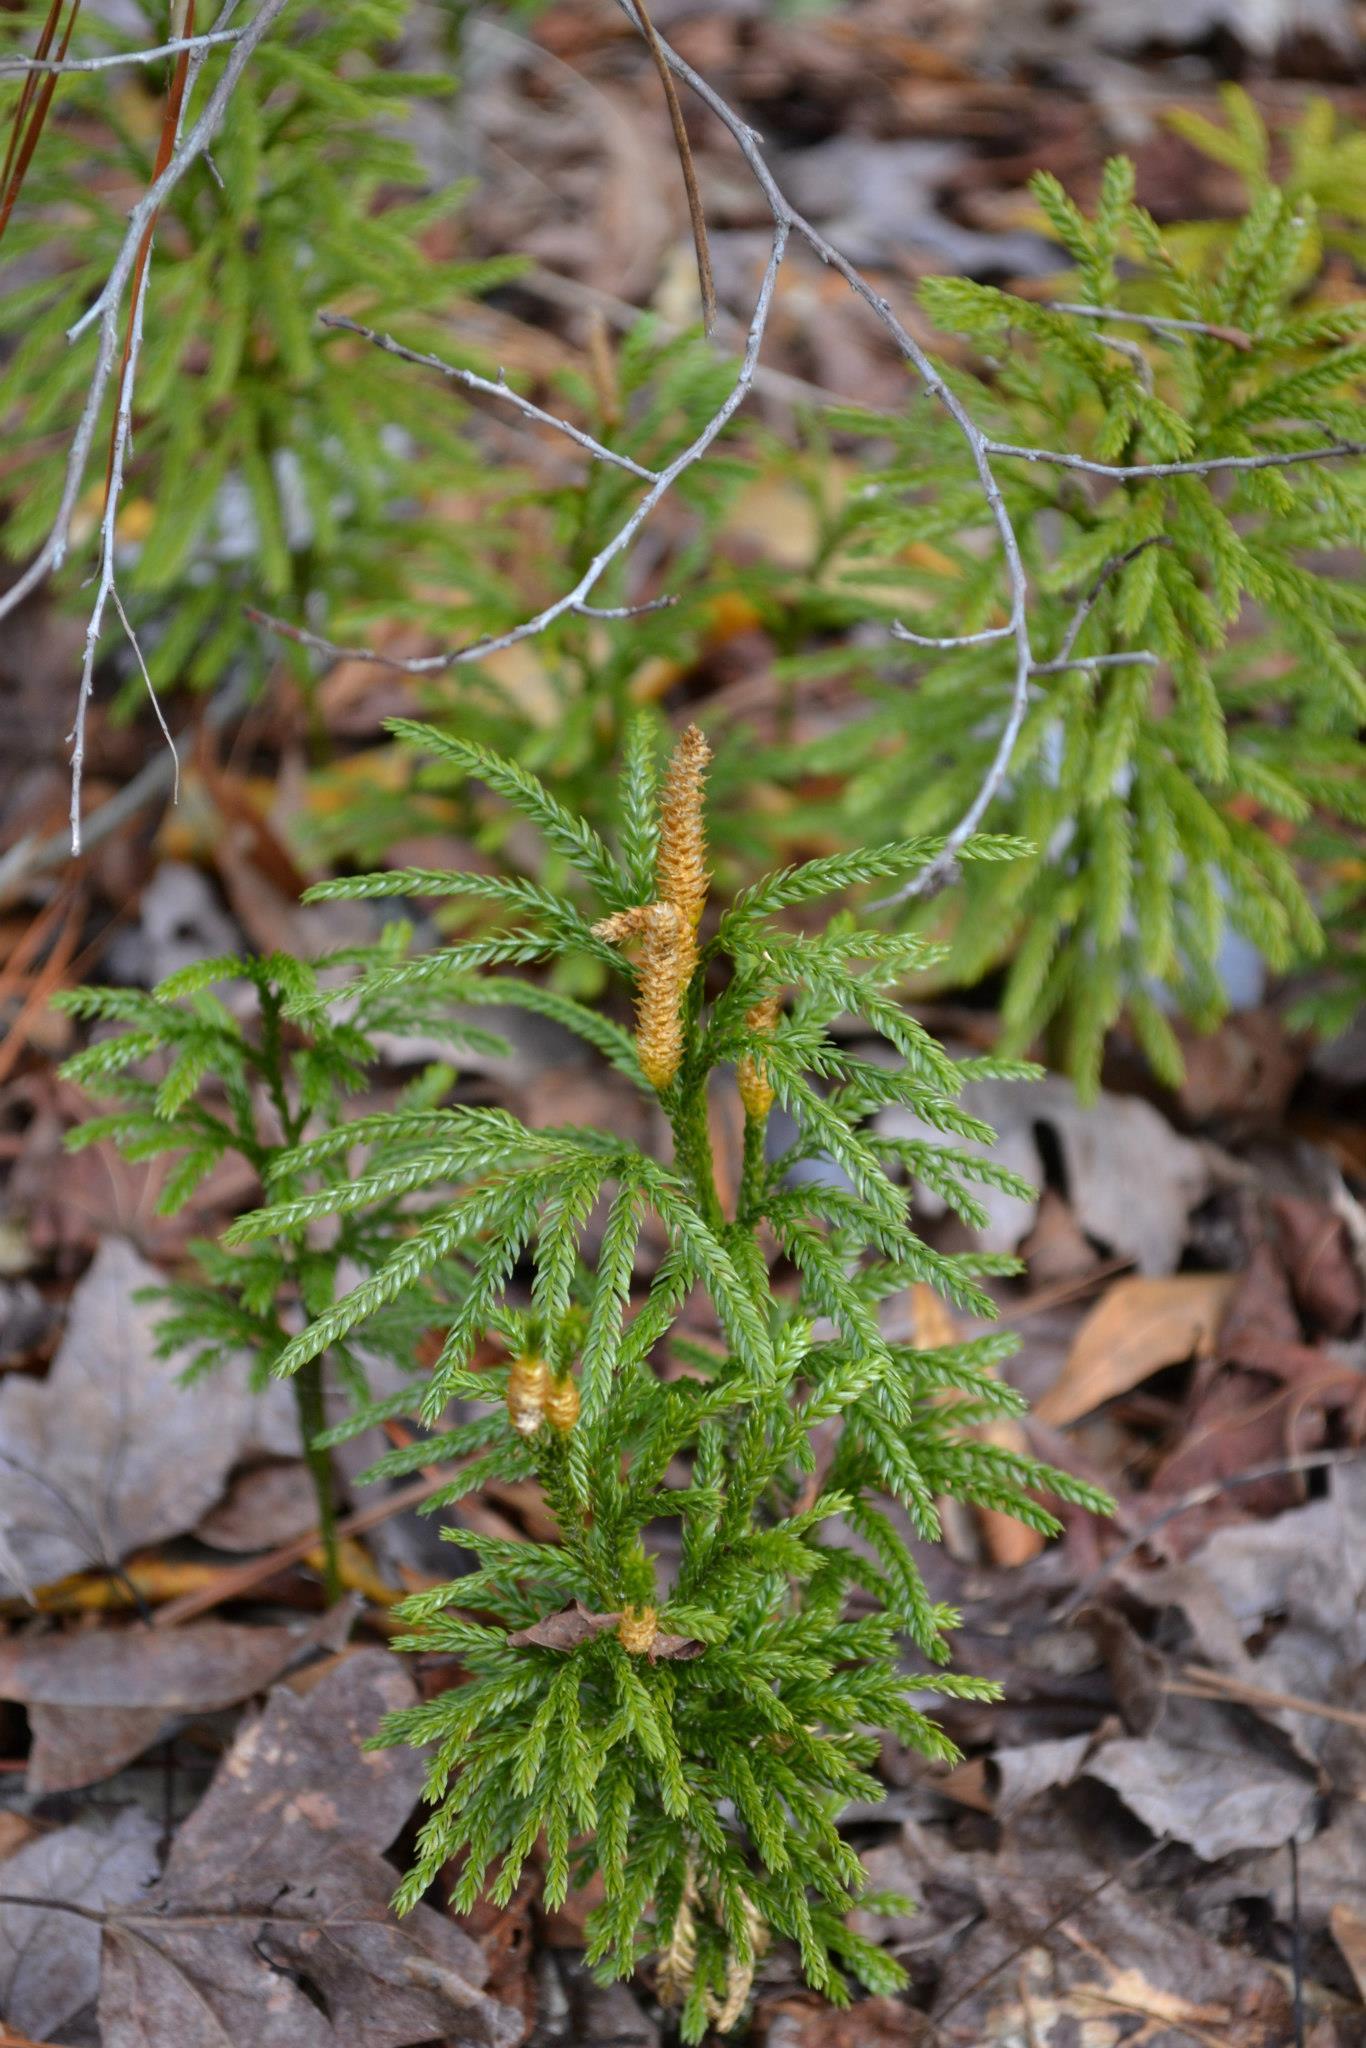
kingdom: Plantae
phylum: Tracheophyta
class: Lycopodiopsida
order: Lycopodiales
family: Lycopodiaceae
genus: Dendrolycopodium
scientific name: Dendrolycopodium obscurum
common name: Common ground-pine
